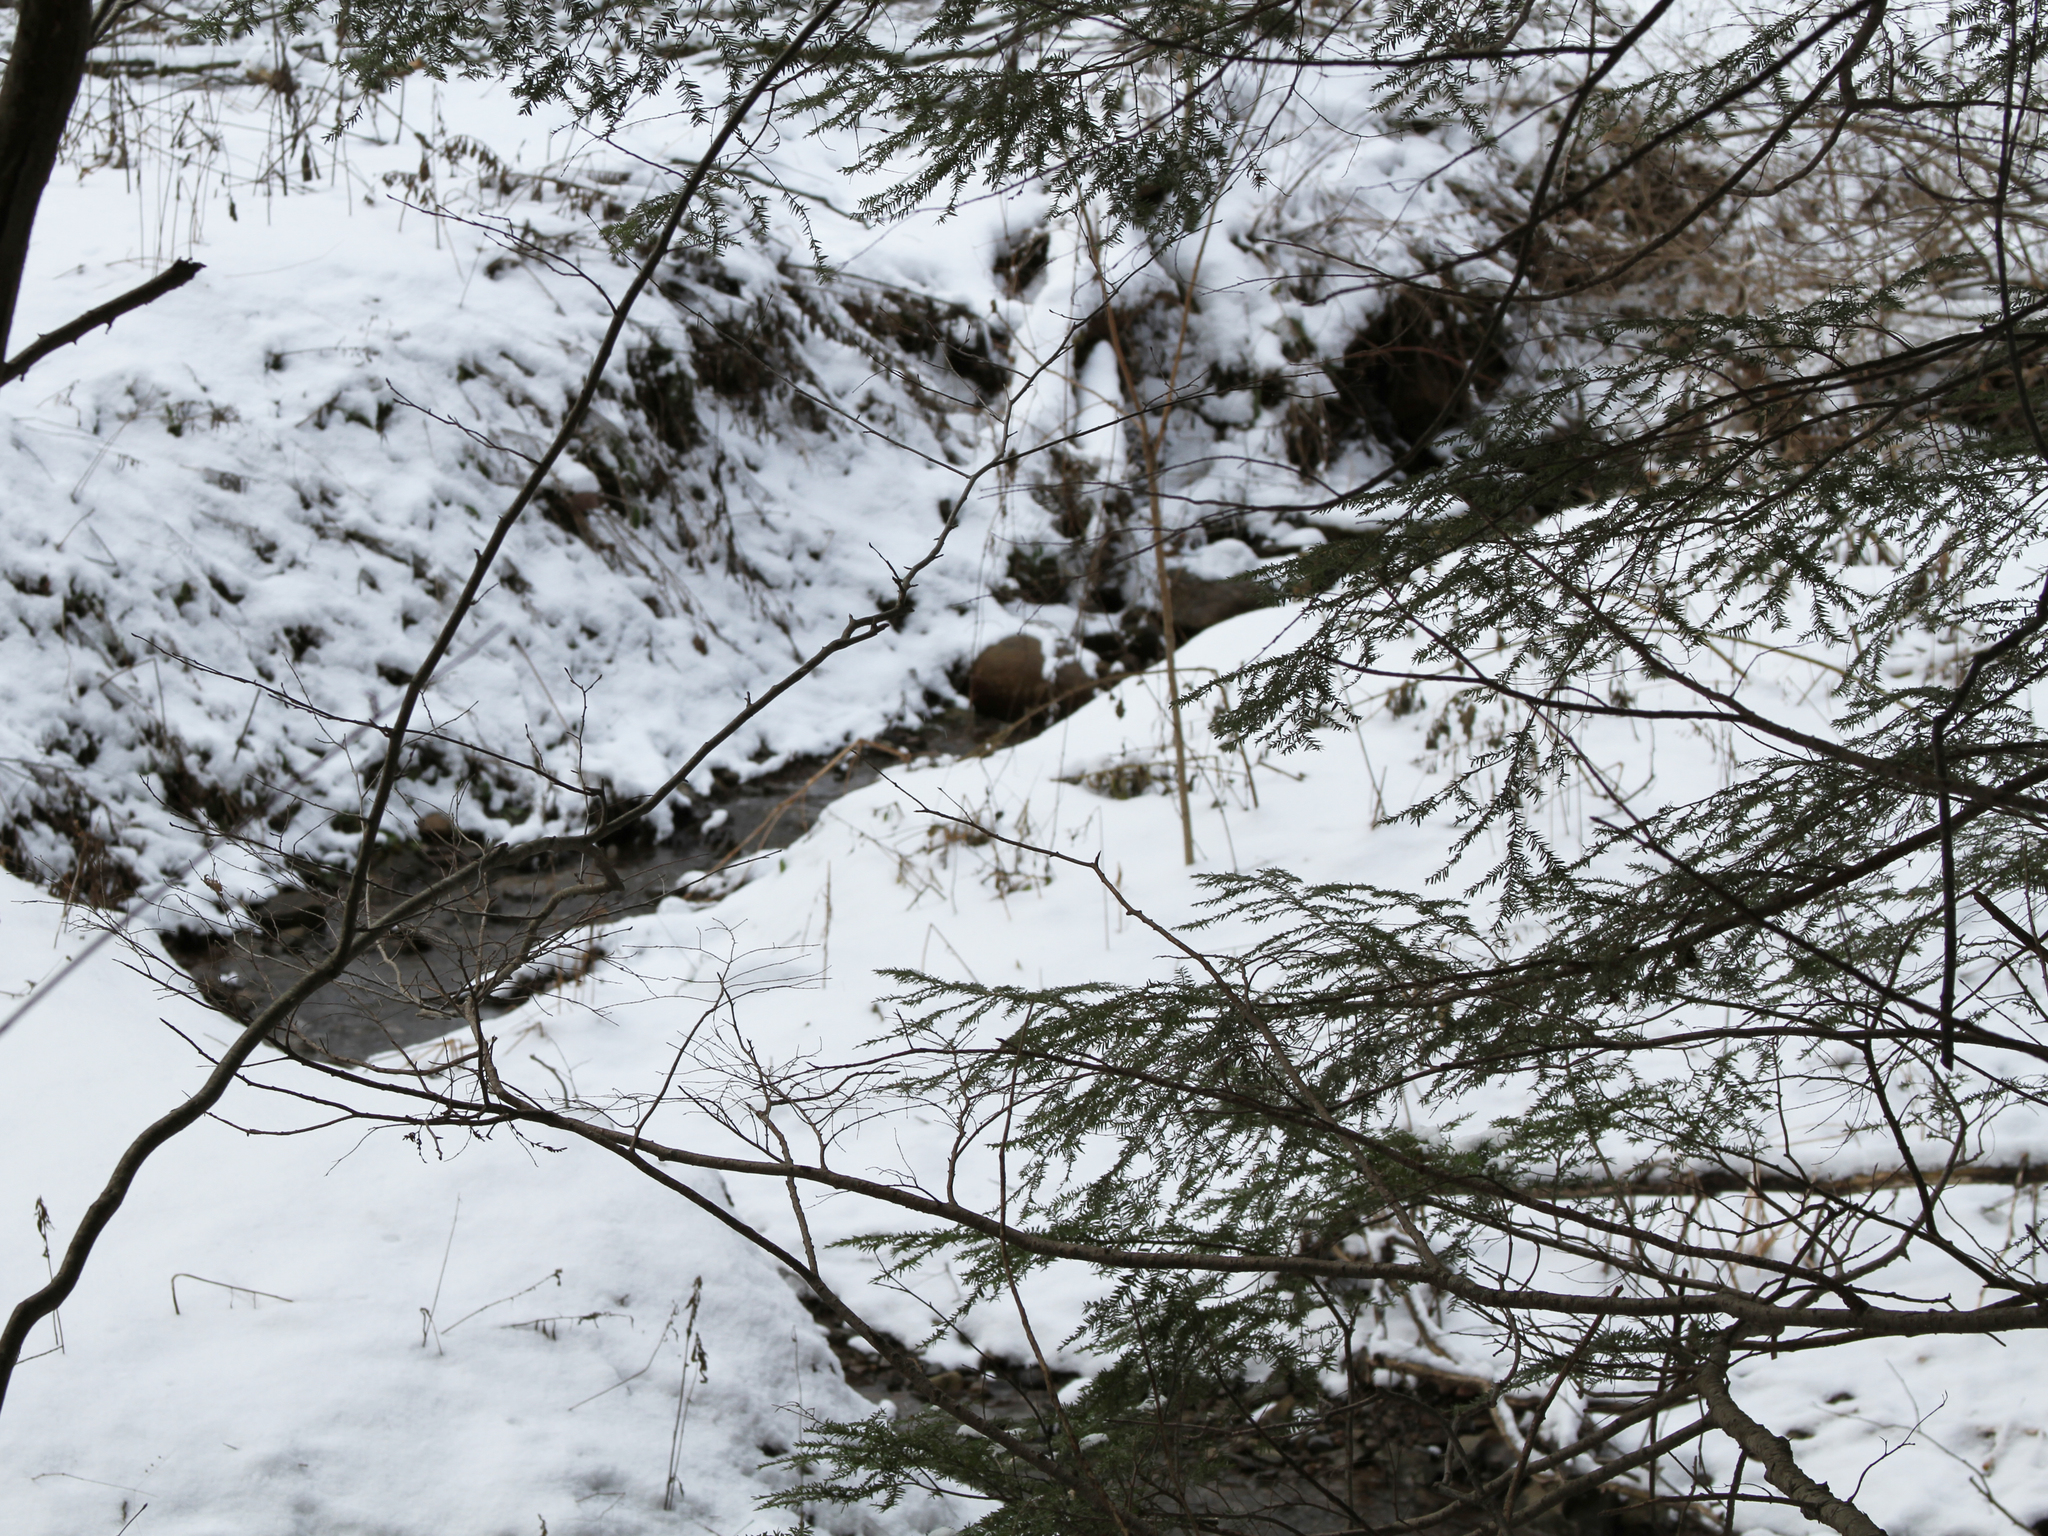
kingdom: Plantae
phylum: Tracheophyta
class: Pinopsida
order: Pinales
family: Pinaceae
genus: Tsuga
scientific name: Tsuga canadensis
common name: Eastern hemlock
